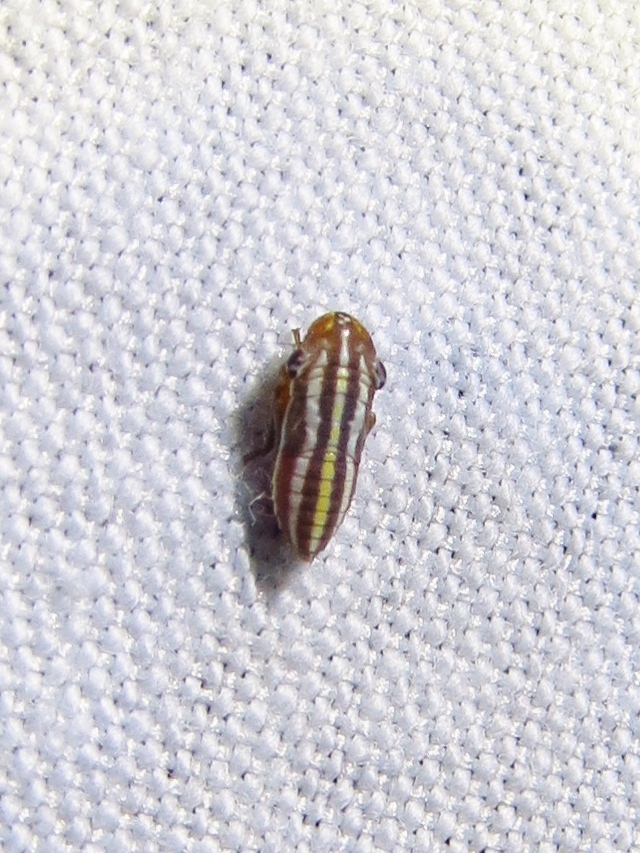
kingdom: Animalia
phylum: Arthropoda
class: Insecta
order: Hemiptera
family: Cicadellidae
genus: Cuerna
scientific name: Cuerna costalis
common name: Lateral-lined sharpshooter
